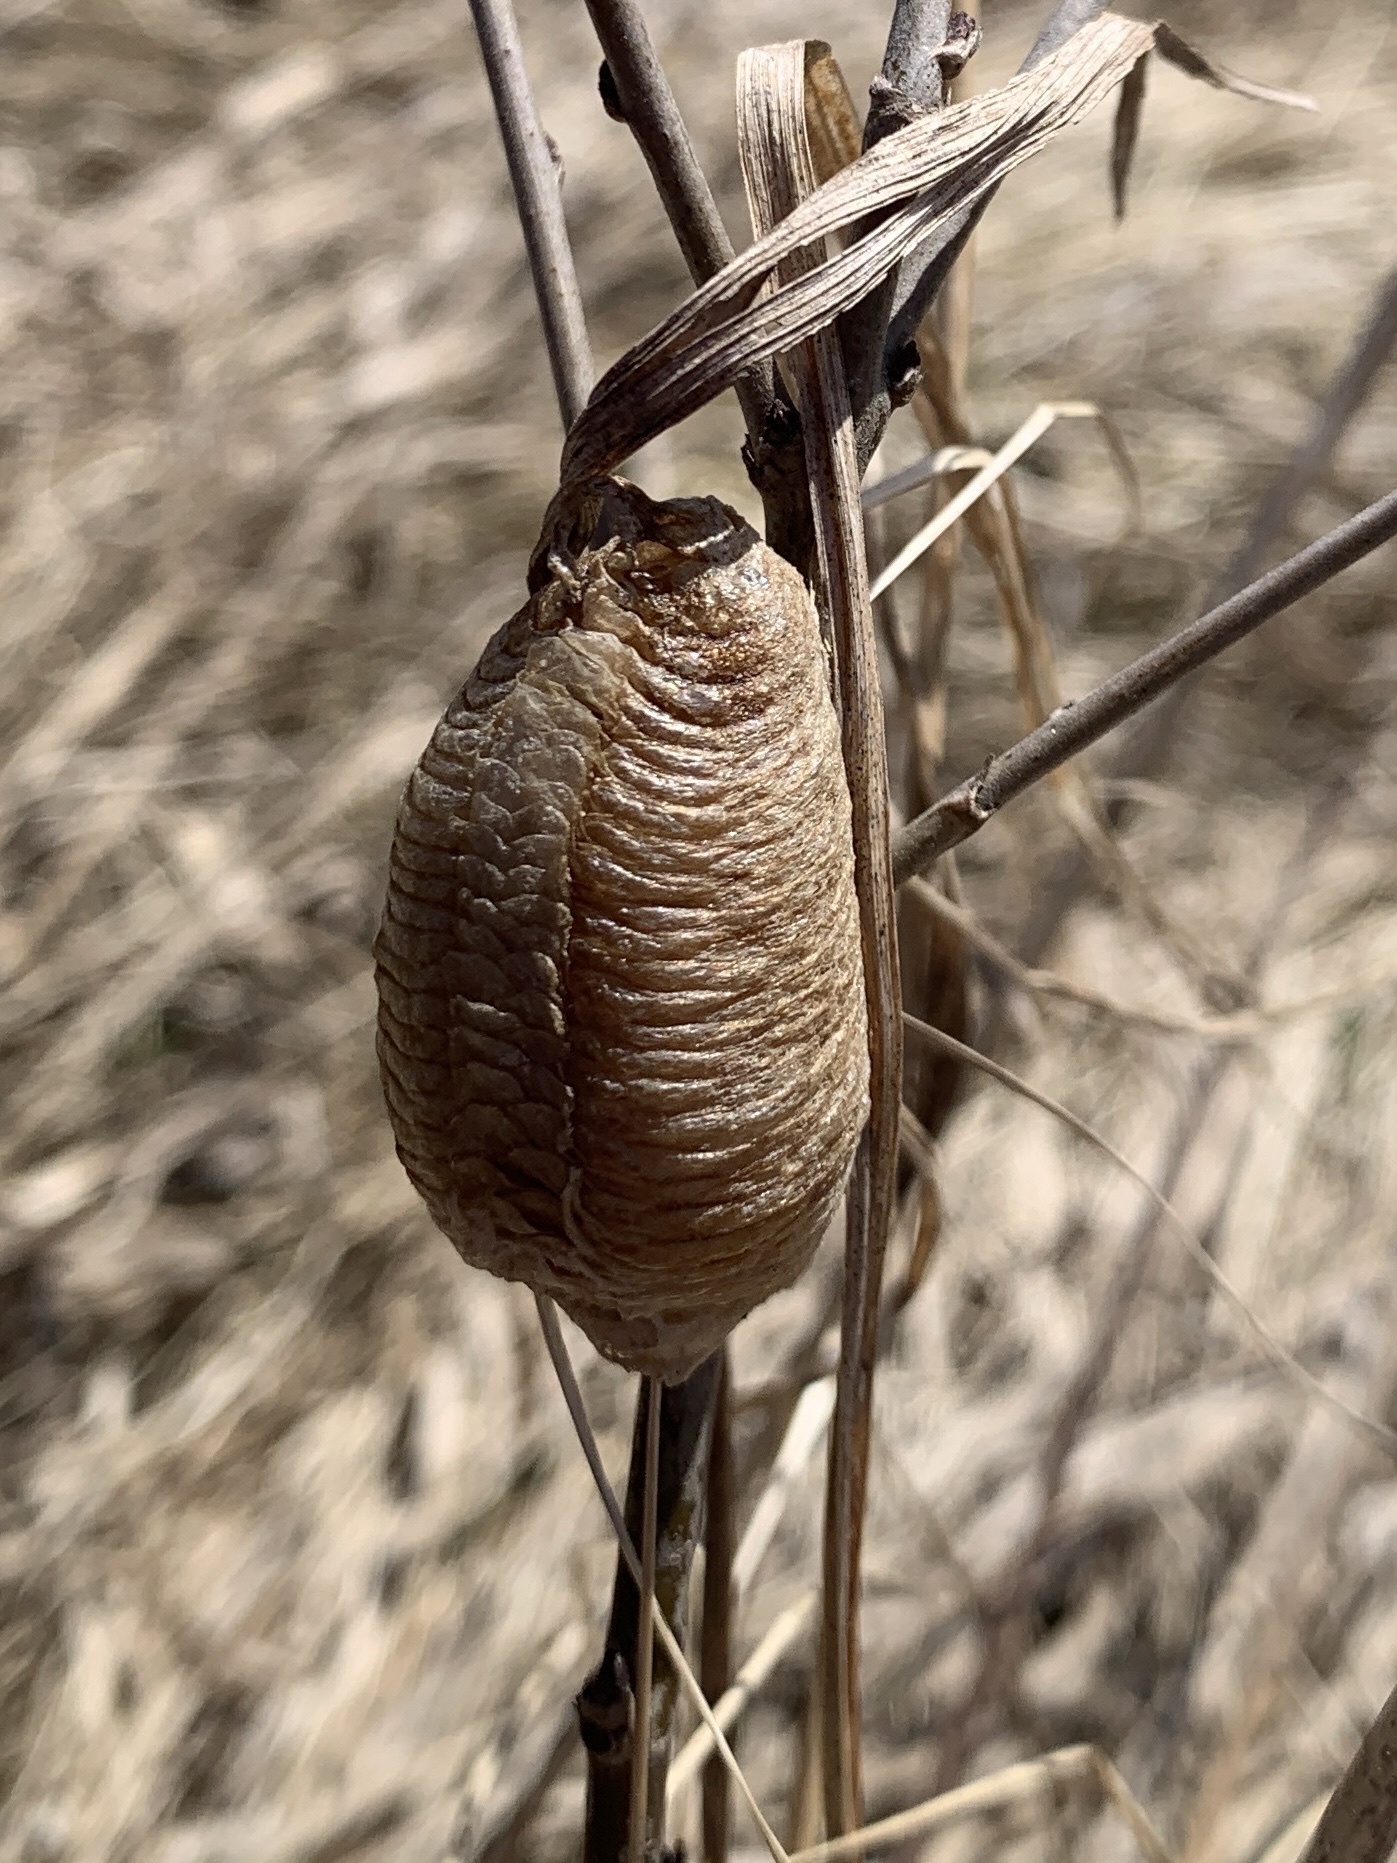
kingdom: Animalia
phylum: Arthropoda
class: Insecta
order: Mantodea
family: Mantidae
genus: Mantis
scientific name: Mantis religiosa
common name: Praying mantis
